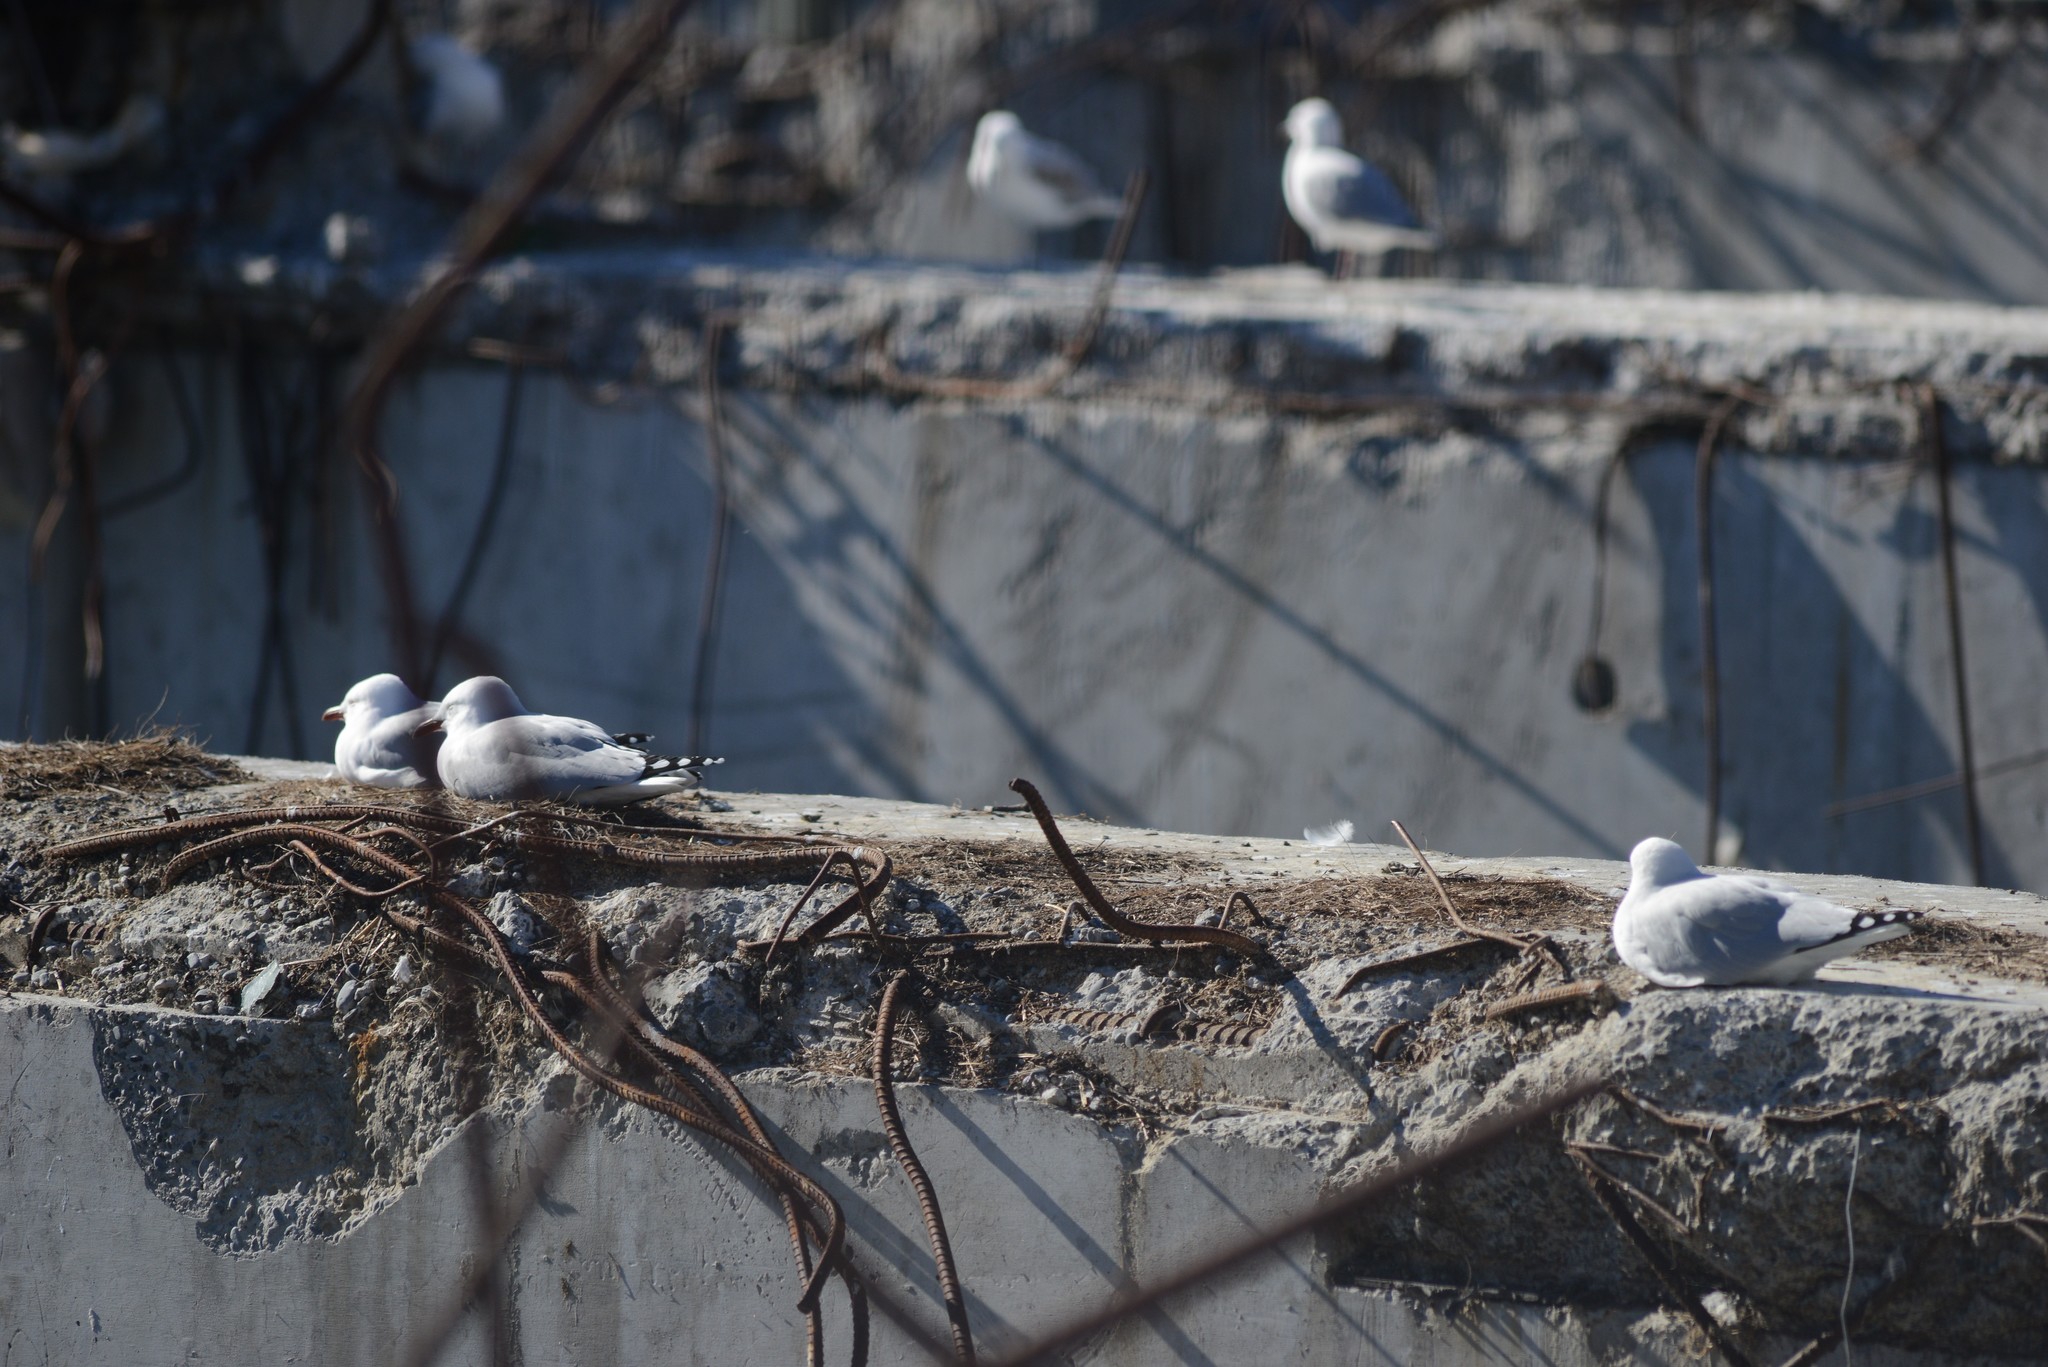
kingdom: Animalia
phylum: Chordata
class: Aves
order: Charadriiformes
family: Laridae
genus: Chroicocephalus
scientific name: Chroicocephalus novaehollandiae
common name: Silver gull
